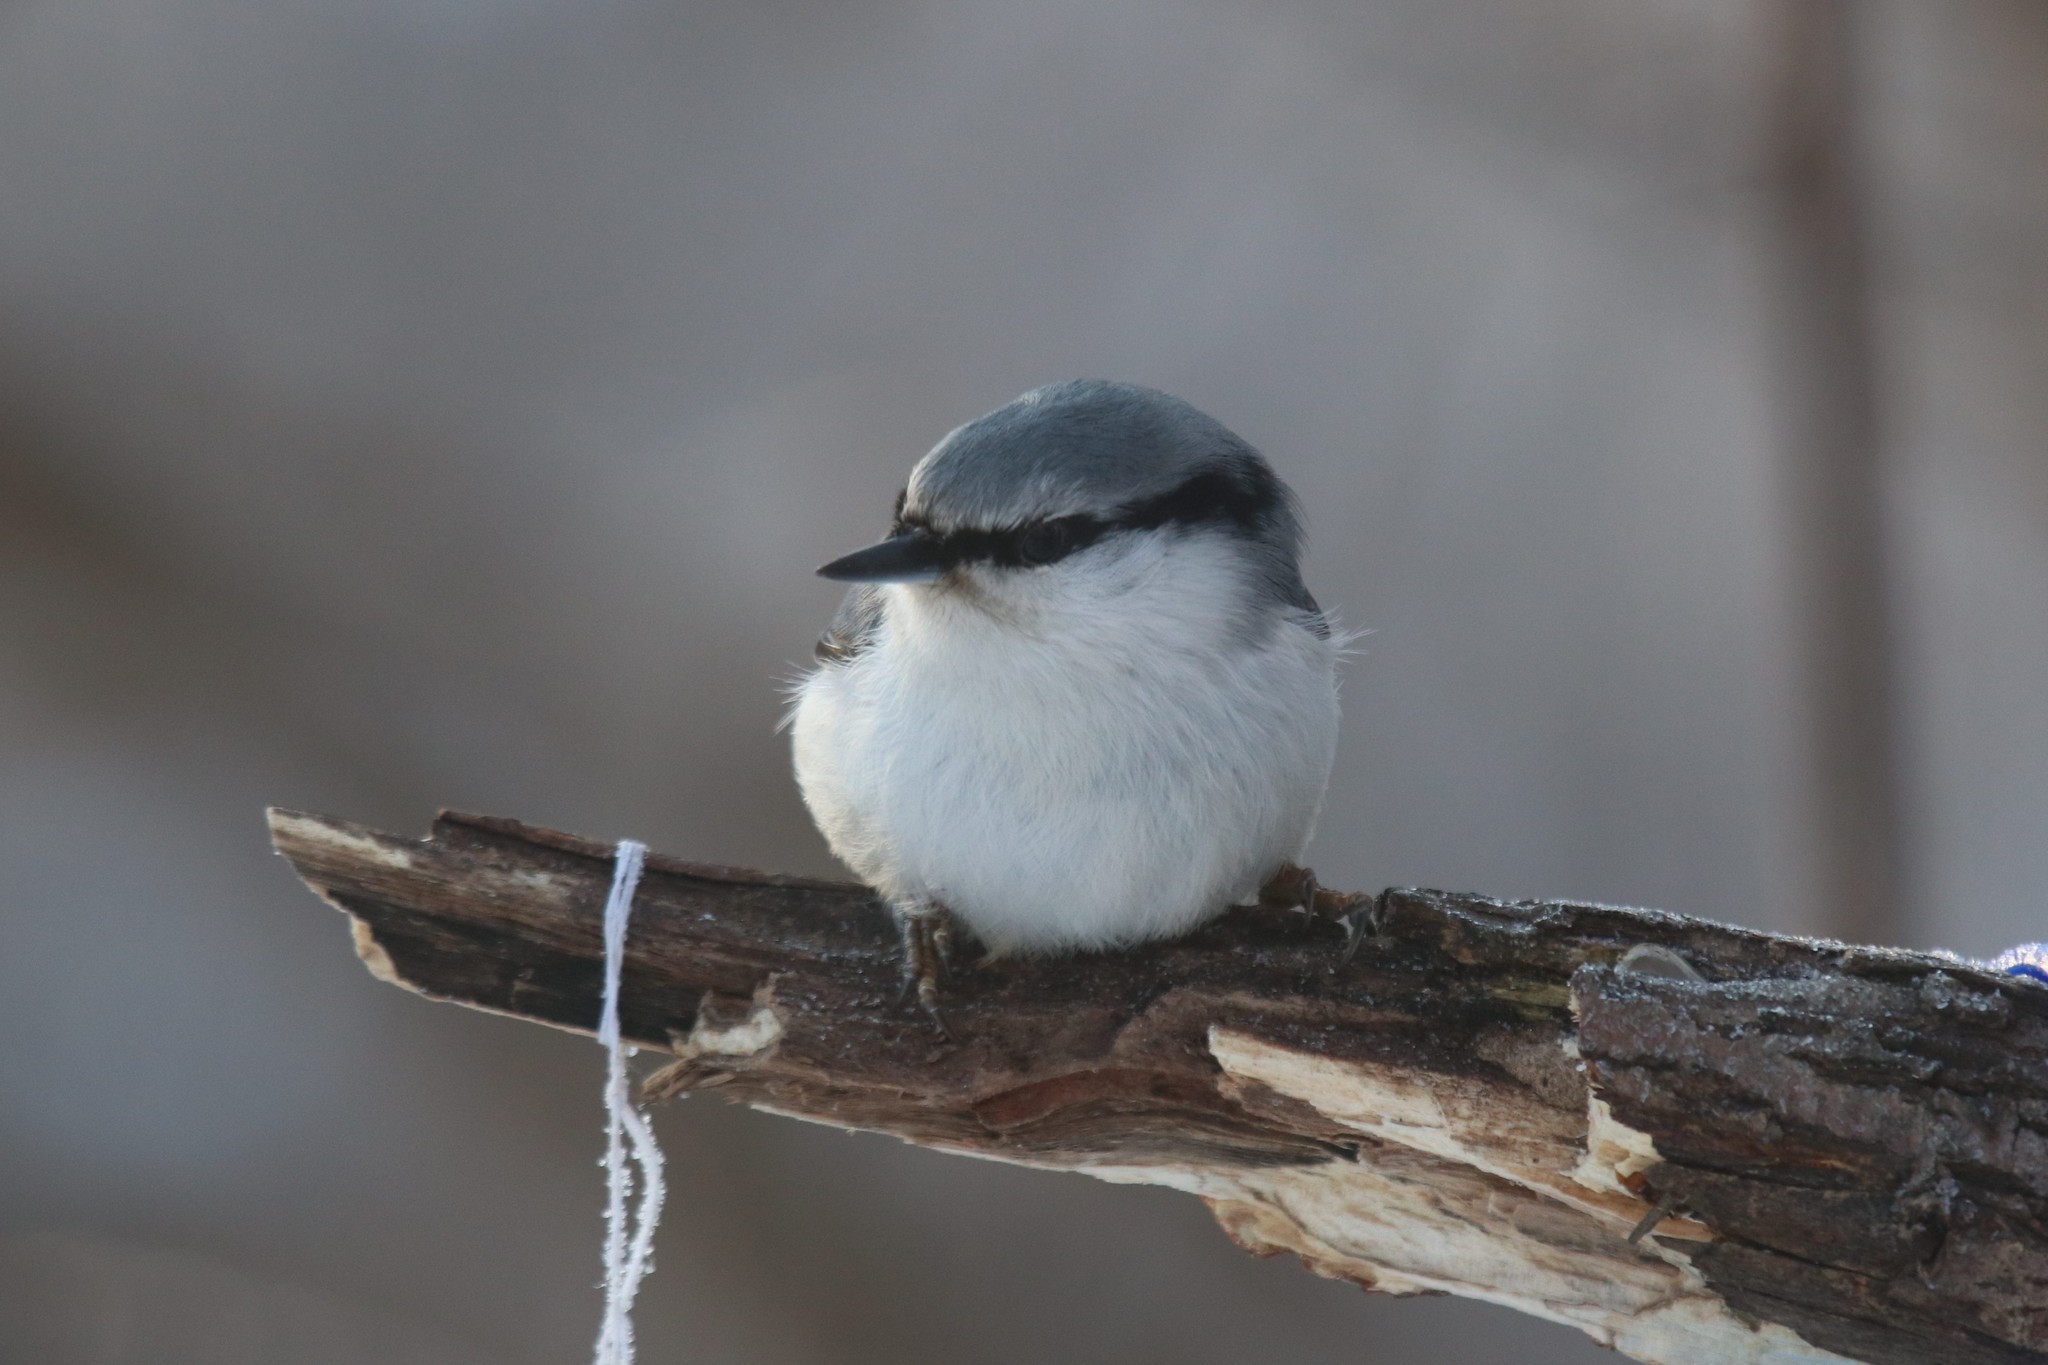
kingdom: Animalia
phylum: Chordata
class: Aves
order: Passeriformes
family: Sittidae
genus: Sitta
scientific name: Sitta europaea
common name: Eurasian nuthatch
